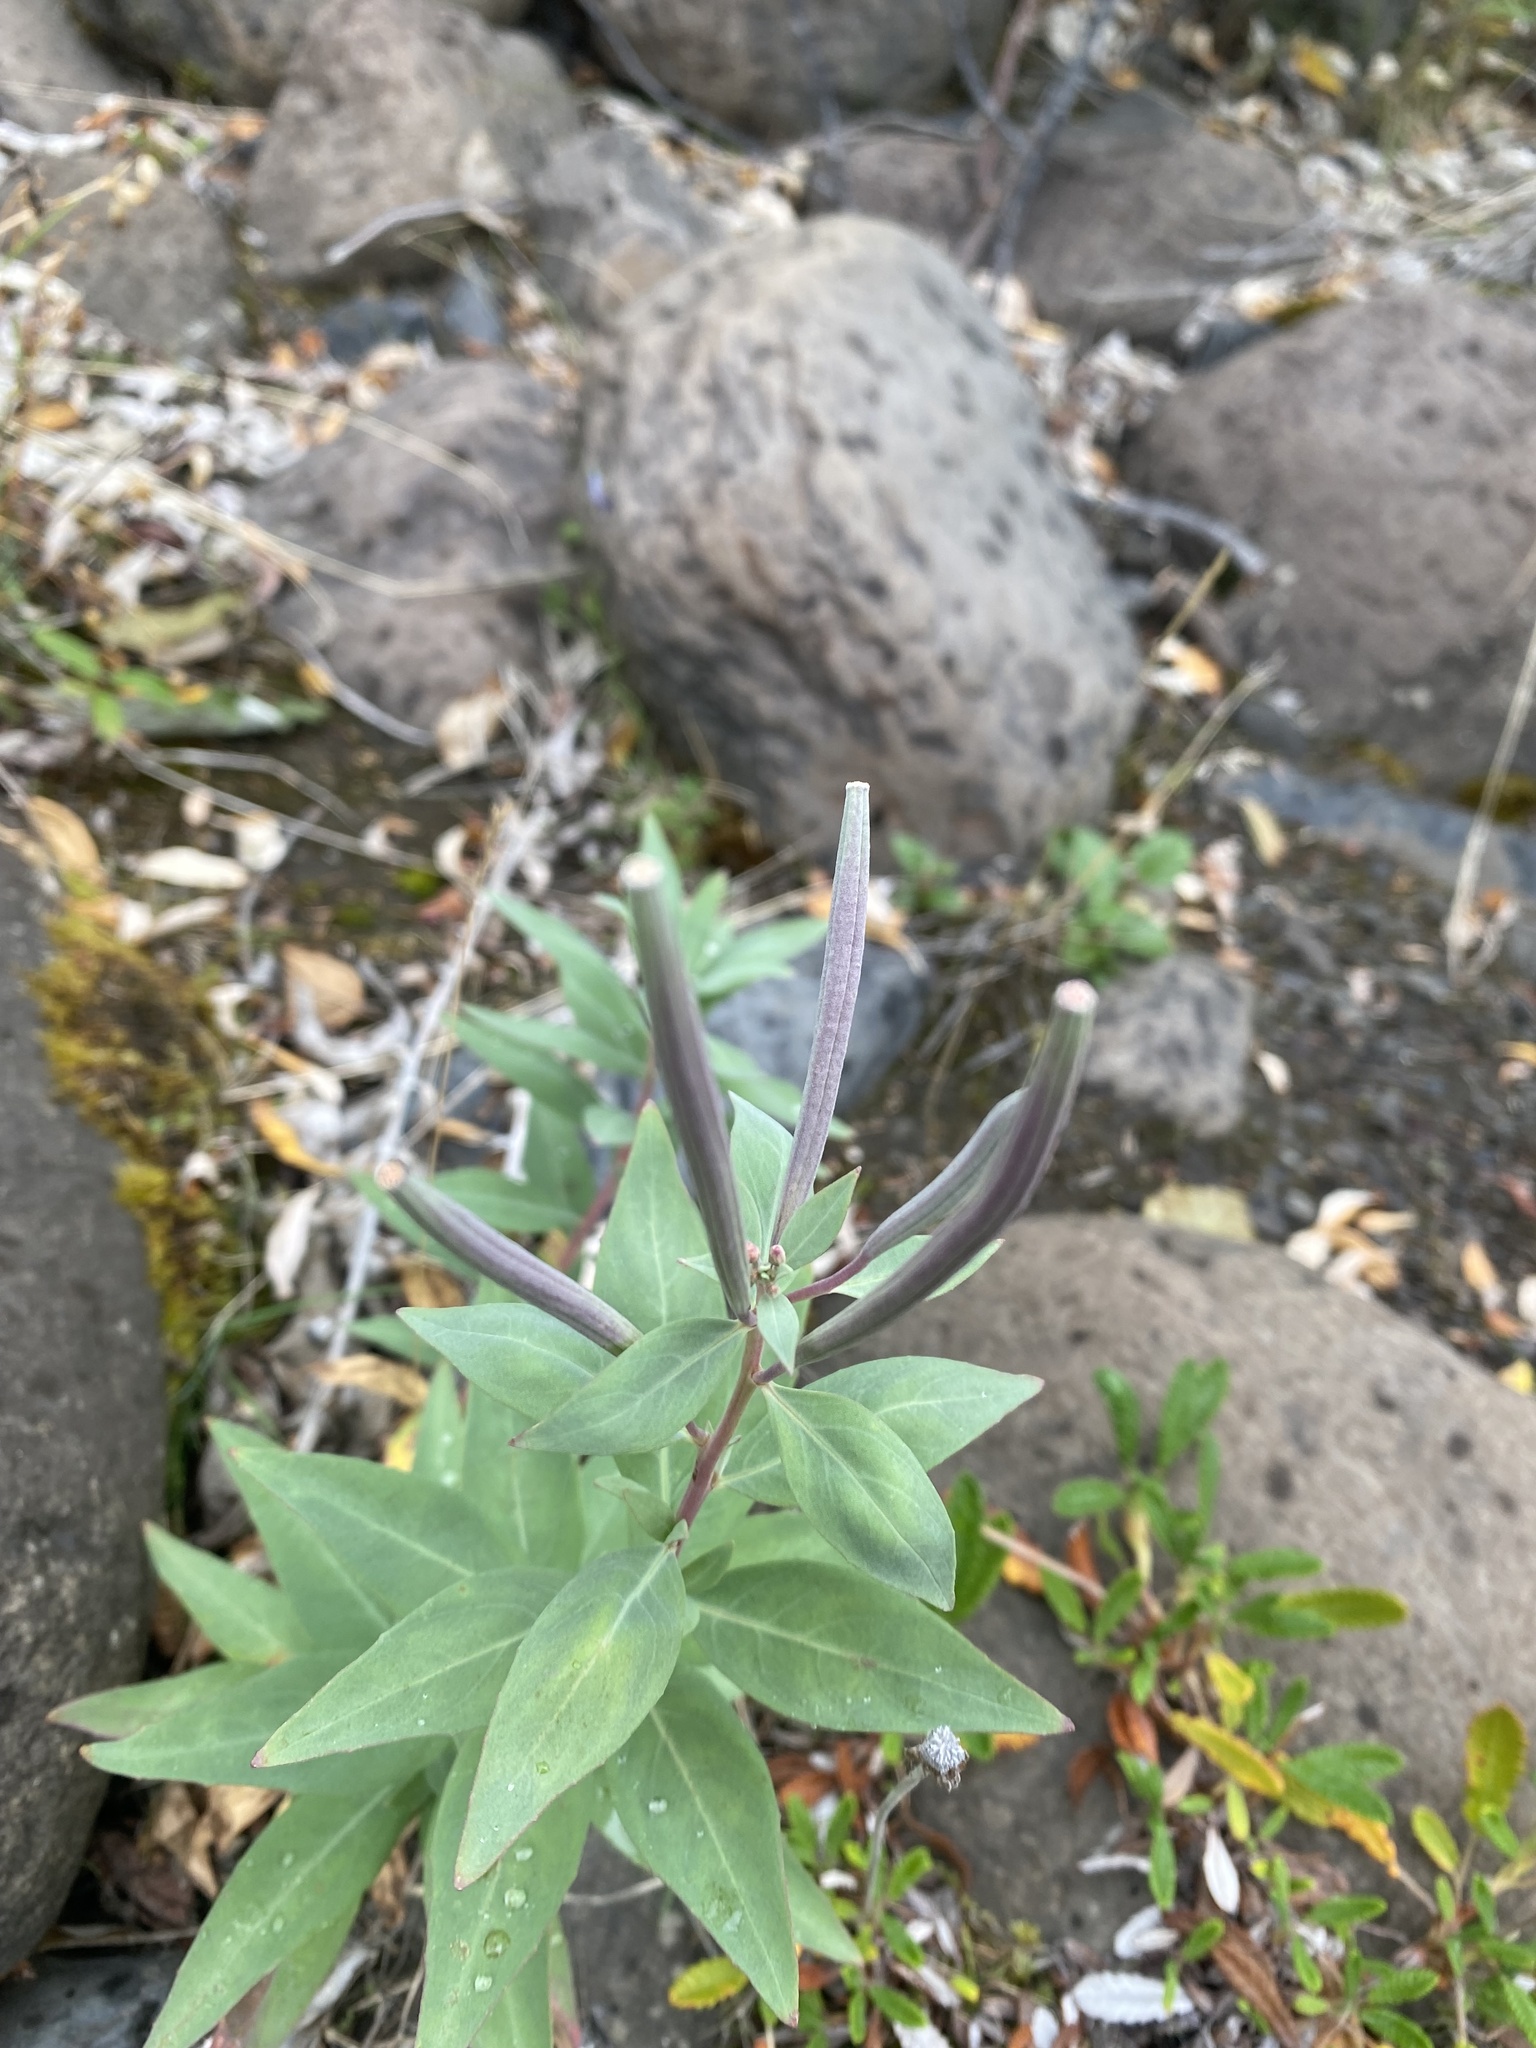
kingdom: Plantae
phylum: Tracheophyta
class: Magnoliopsida
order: Myrtales
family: Onagraceae
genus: Chamaenerion
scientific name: Chamaenerion latifolium
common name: Dwarf fireweed
